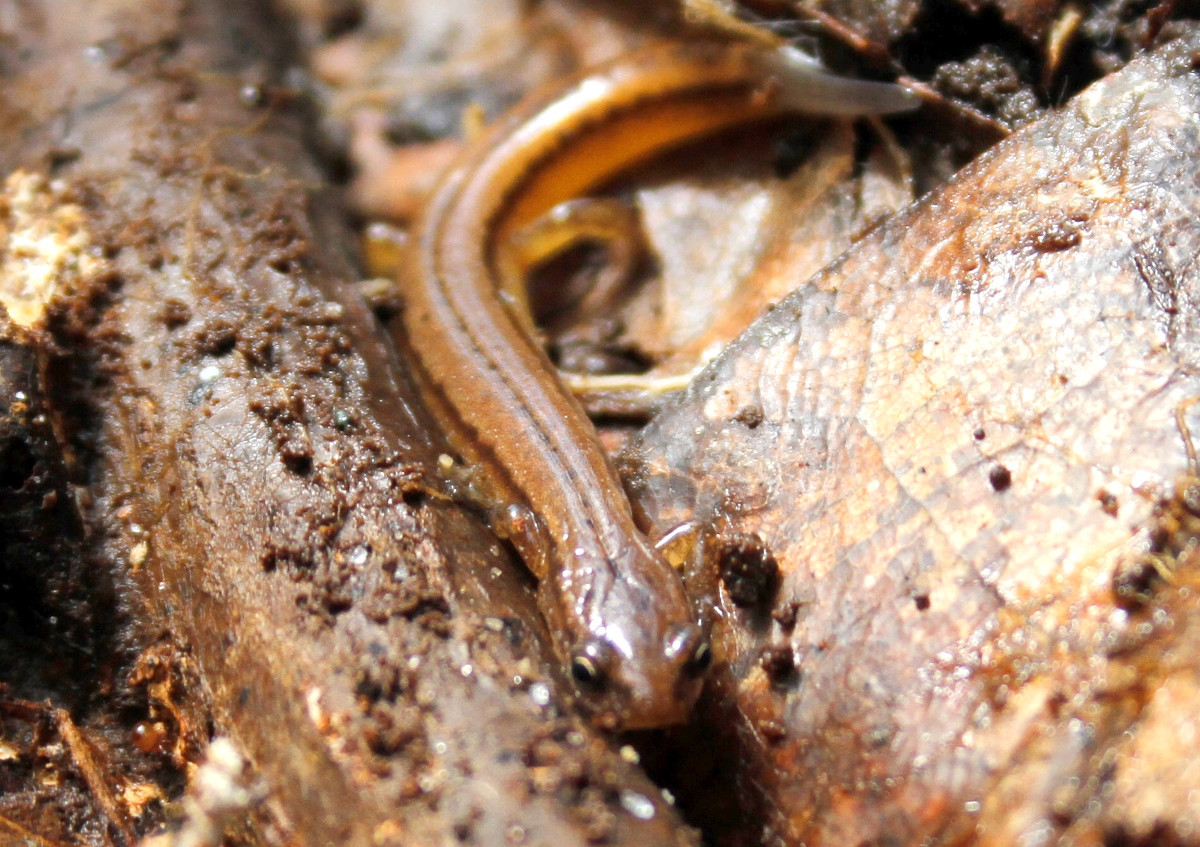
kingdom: Animalia
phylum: Chordata
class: Amphibia
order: Caudata
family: Plethodontidae
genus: Eurycea
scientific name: Eurycea chamberlaini
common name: Chamberlain's dwarf salamander
